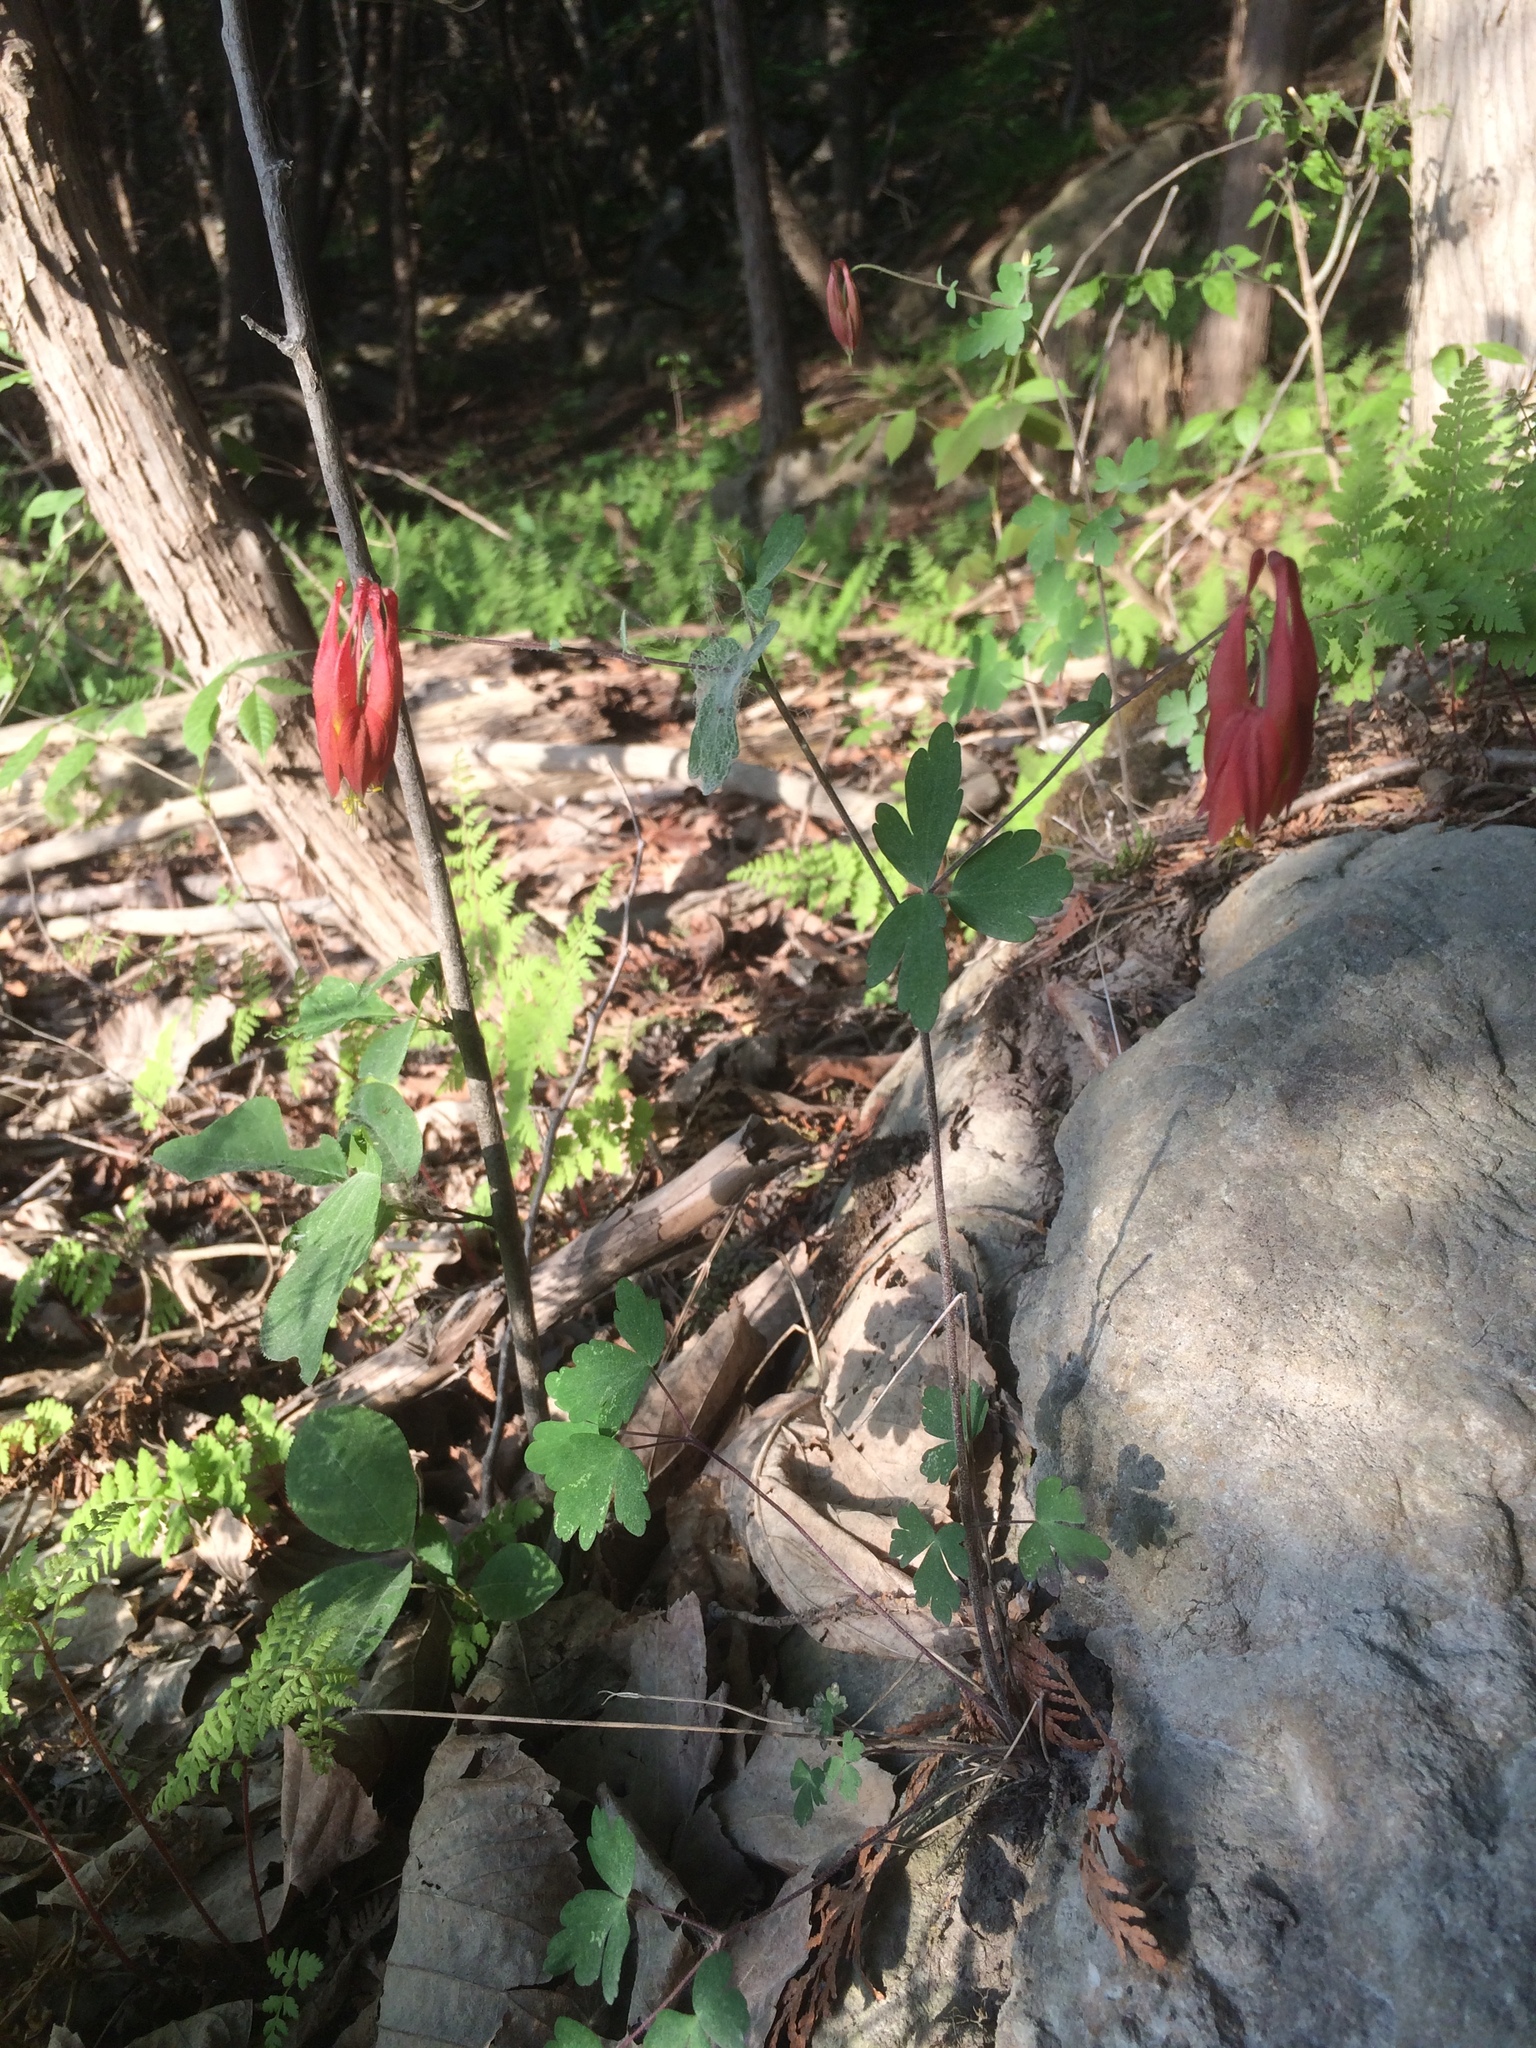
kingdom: Plantae
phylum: Tracheophyta
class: Magnoliopsida
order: Ranunculales
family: Ranunculaceae
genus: Aquilegia
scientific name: Aquilegia canadensis
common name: American columbine
